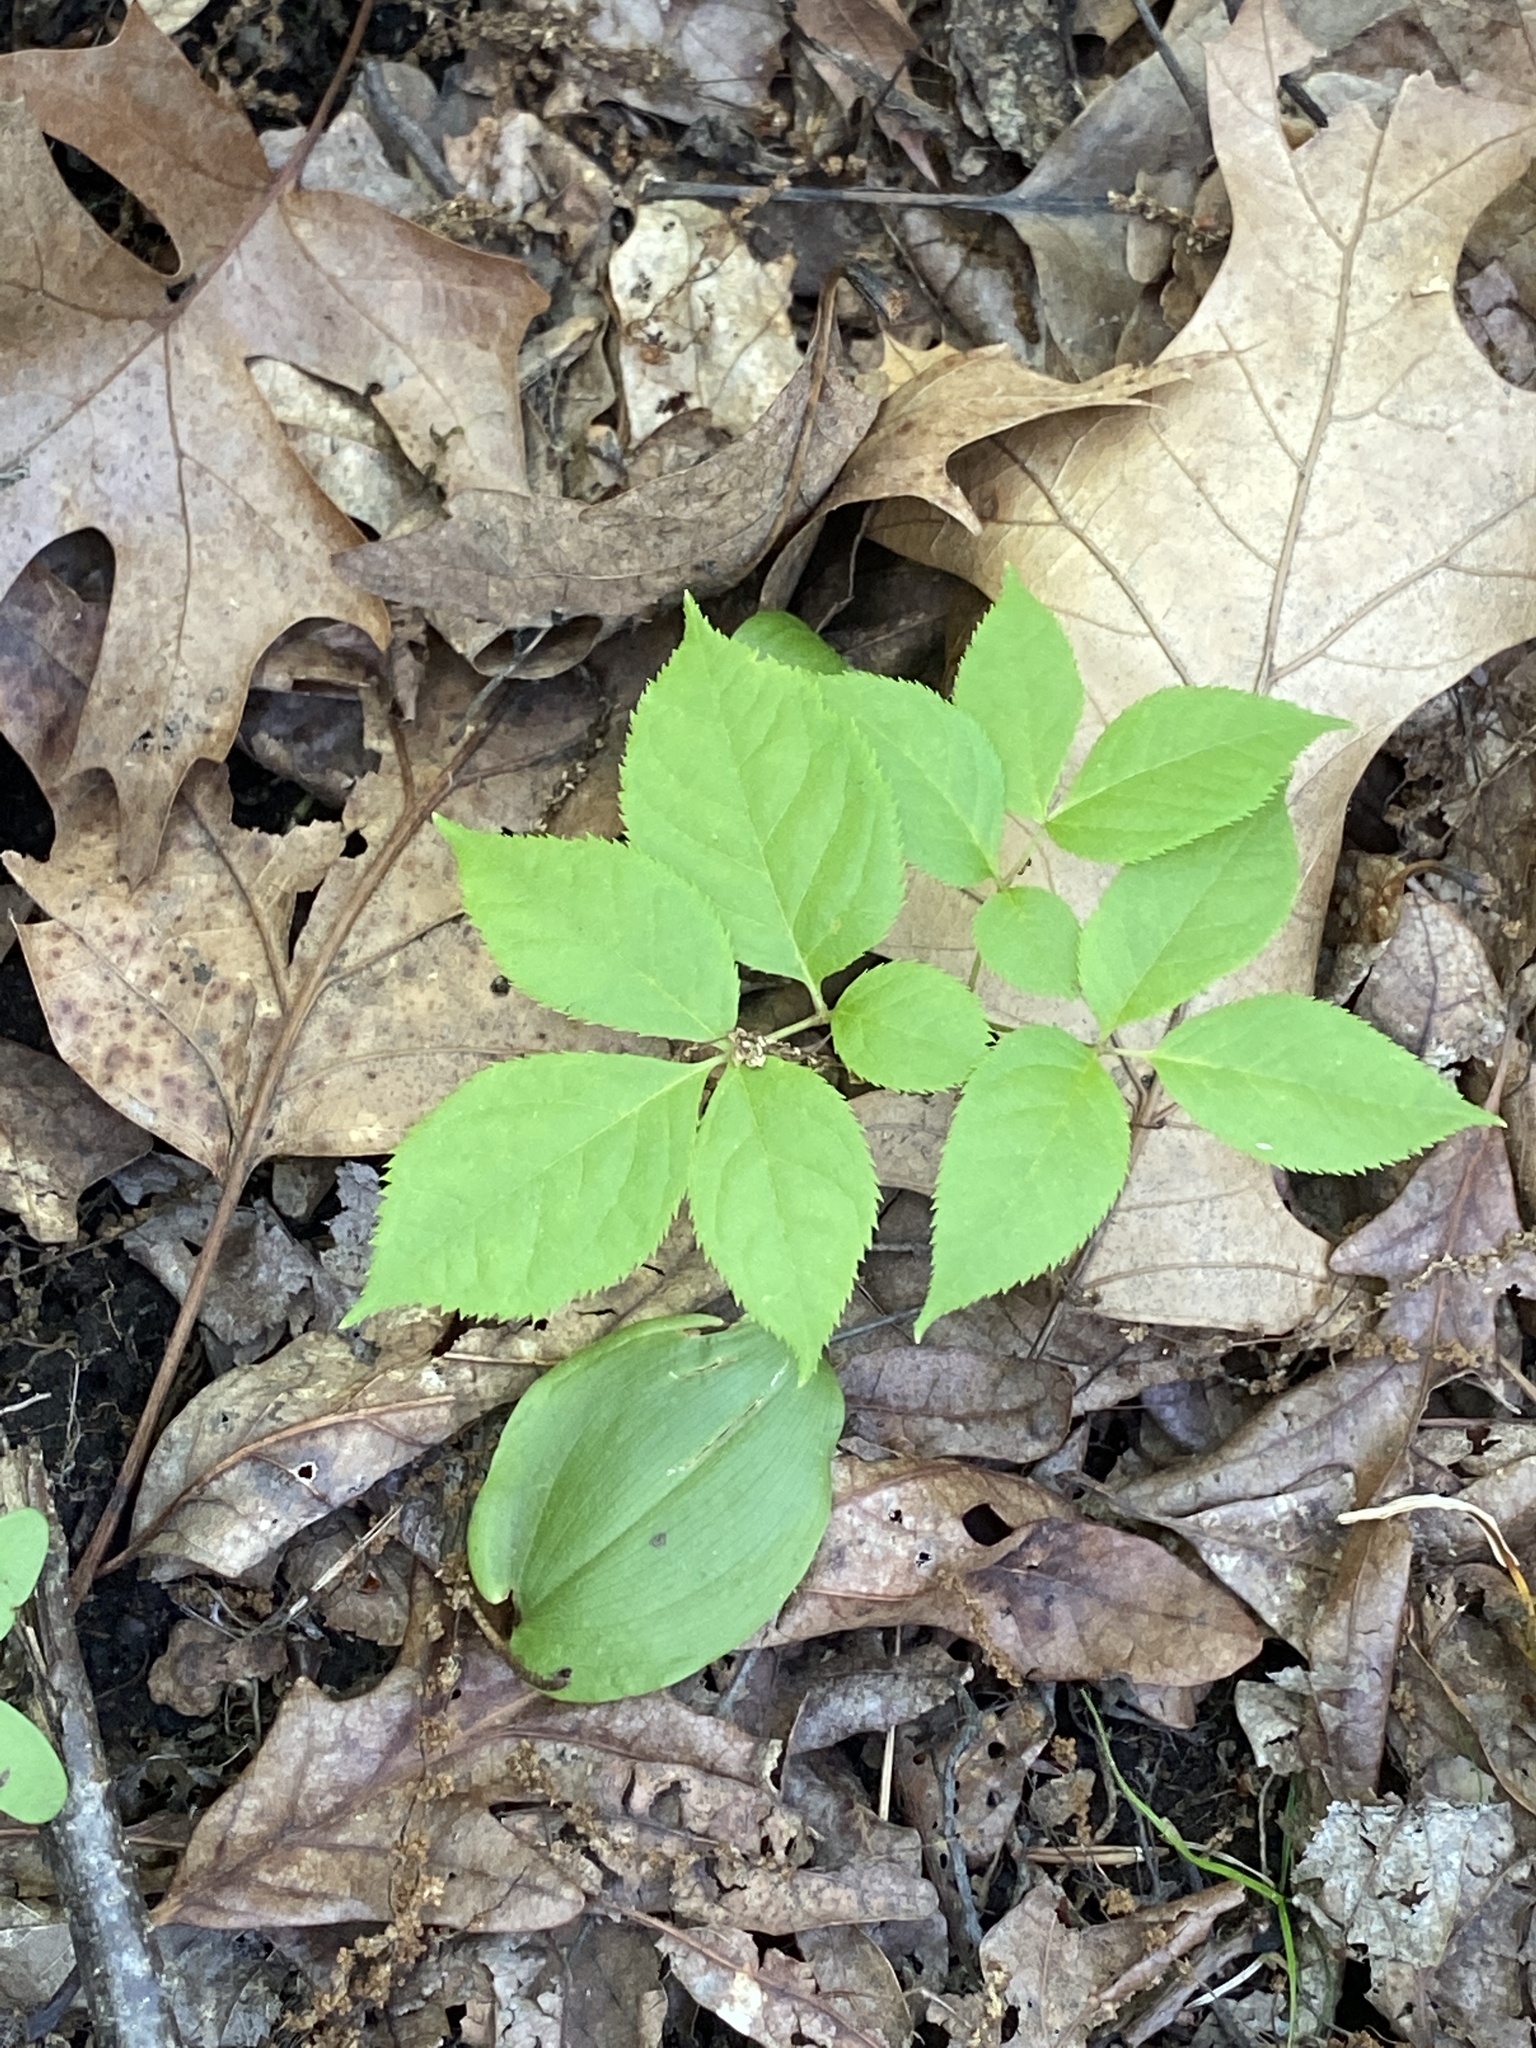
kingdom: Plantae
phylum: Tracheophyta
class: Magnoliopsida
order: Apiales
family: Araliaceae
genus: Aralia
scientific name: Aralia nudicaulis
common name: Wild sarsaparilla
